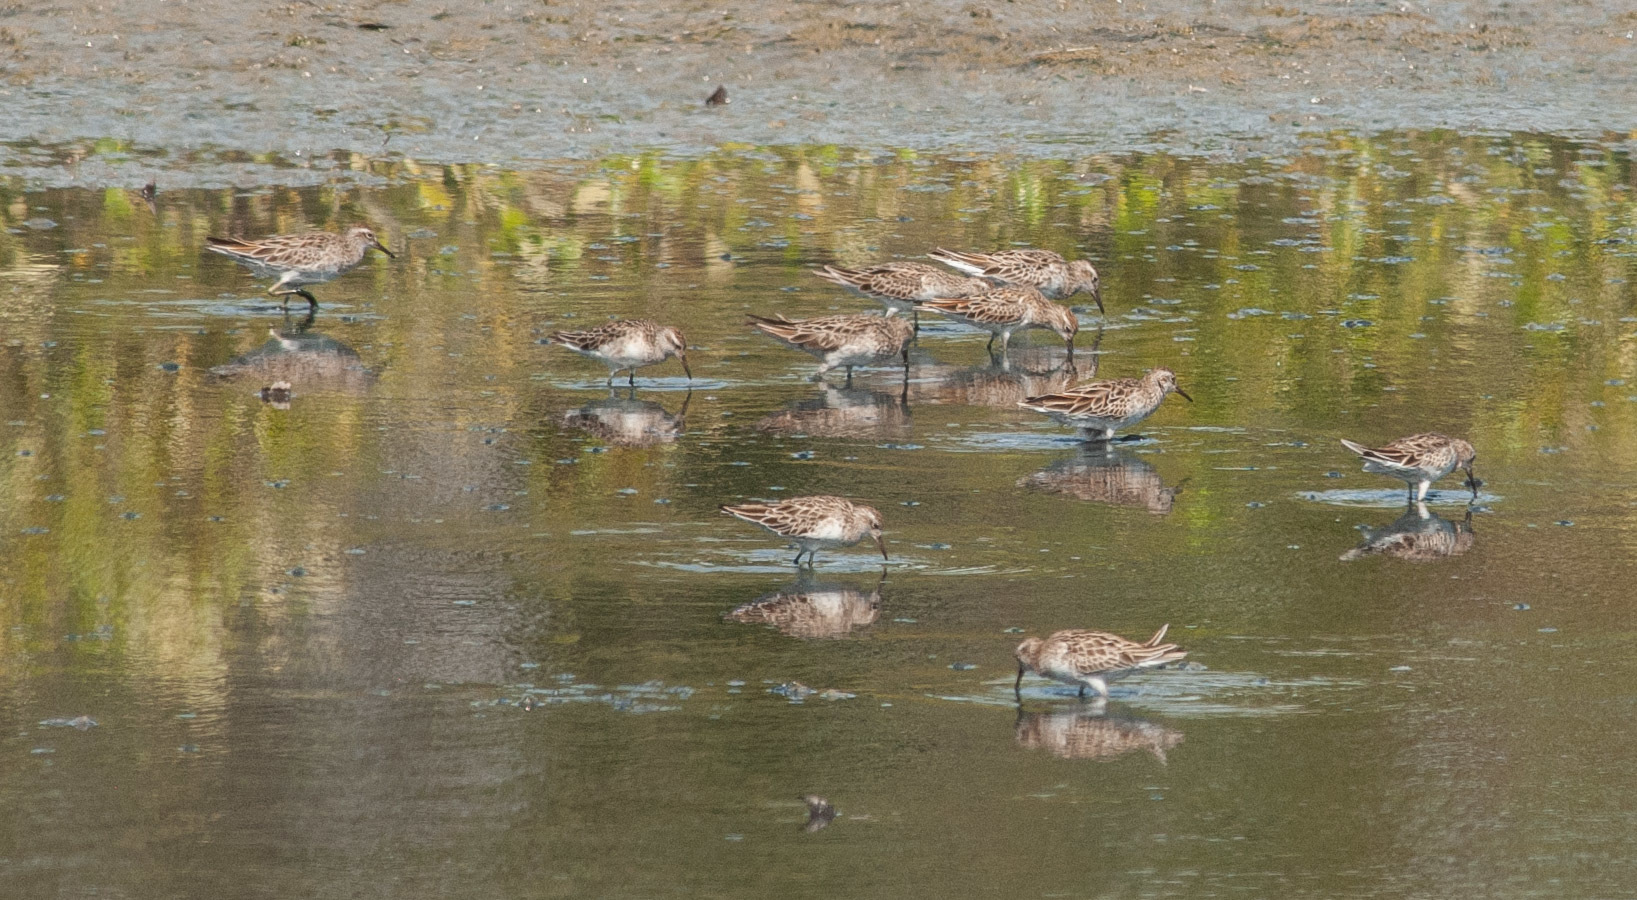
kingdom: Animalia
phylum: Chordata
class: Aves
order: Charadriiformes
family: Scolopacidae
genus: Calidris
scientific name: Calidris acuminata
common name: Sharp-tailed sandpiper
